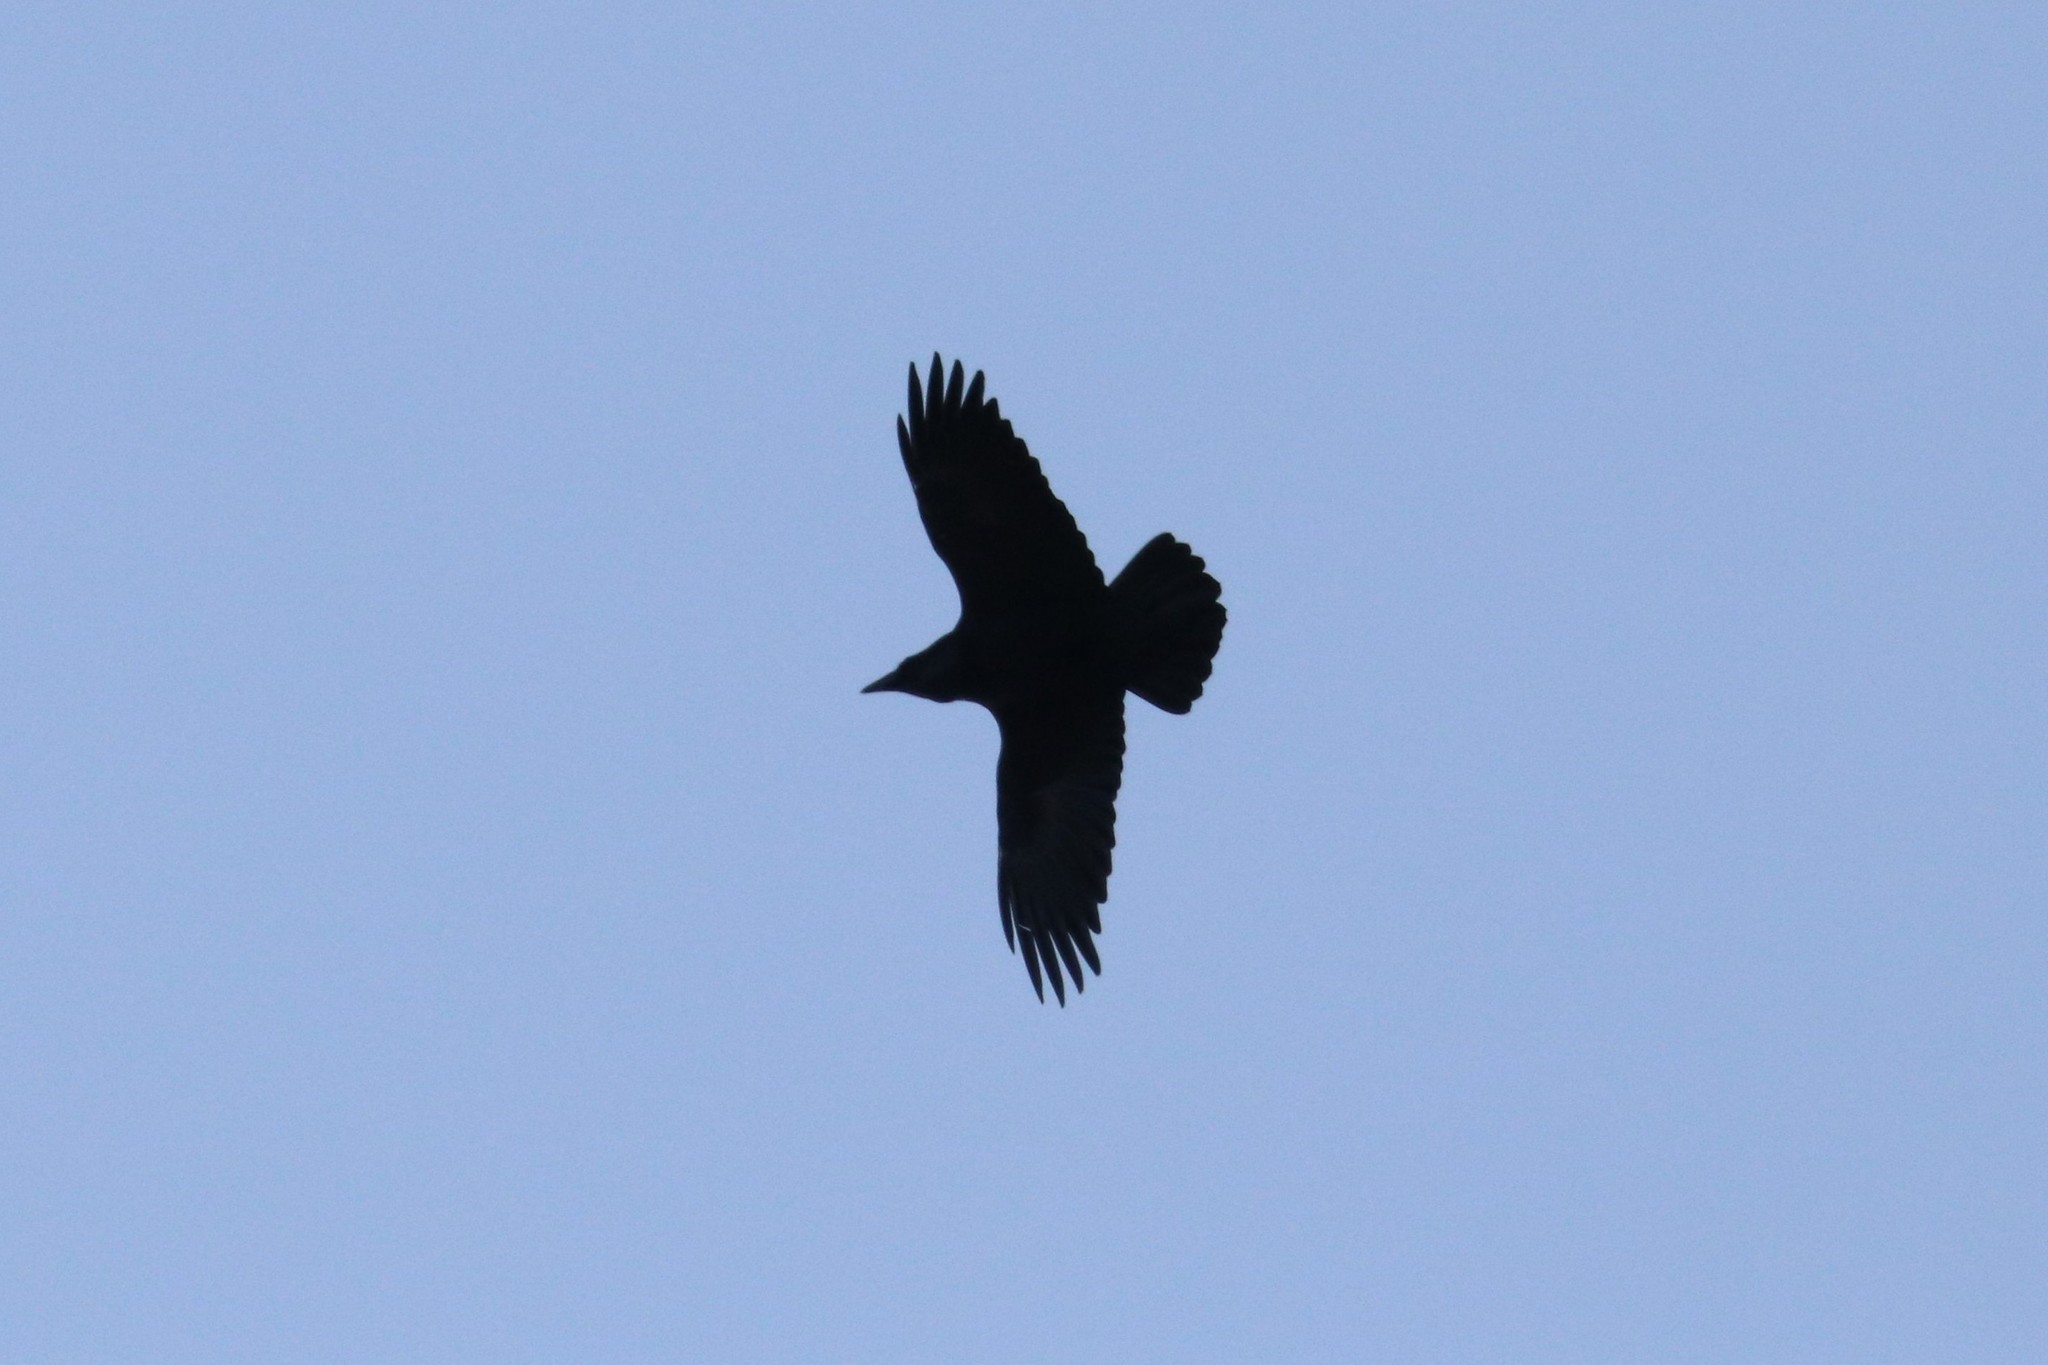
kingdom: Animalia
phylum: Chordata
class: Aves
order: Passeriformes
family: Corvidae
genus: Corvus
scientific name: Corvus corax
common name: Common raven
